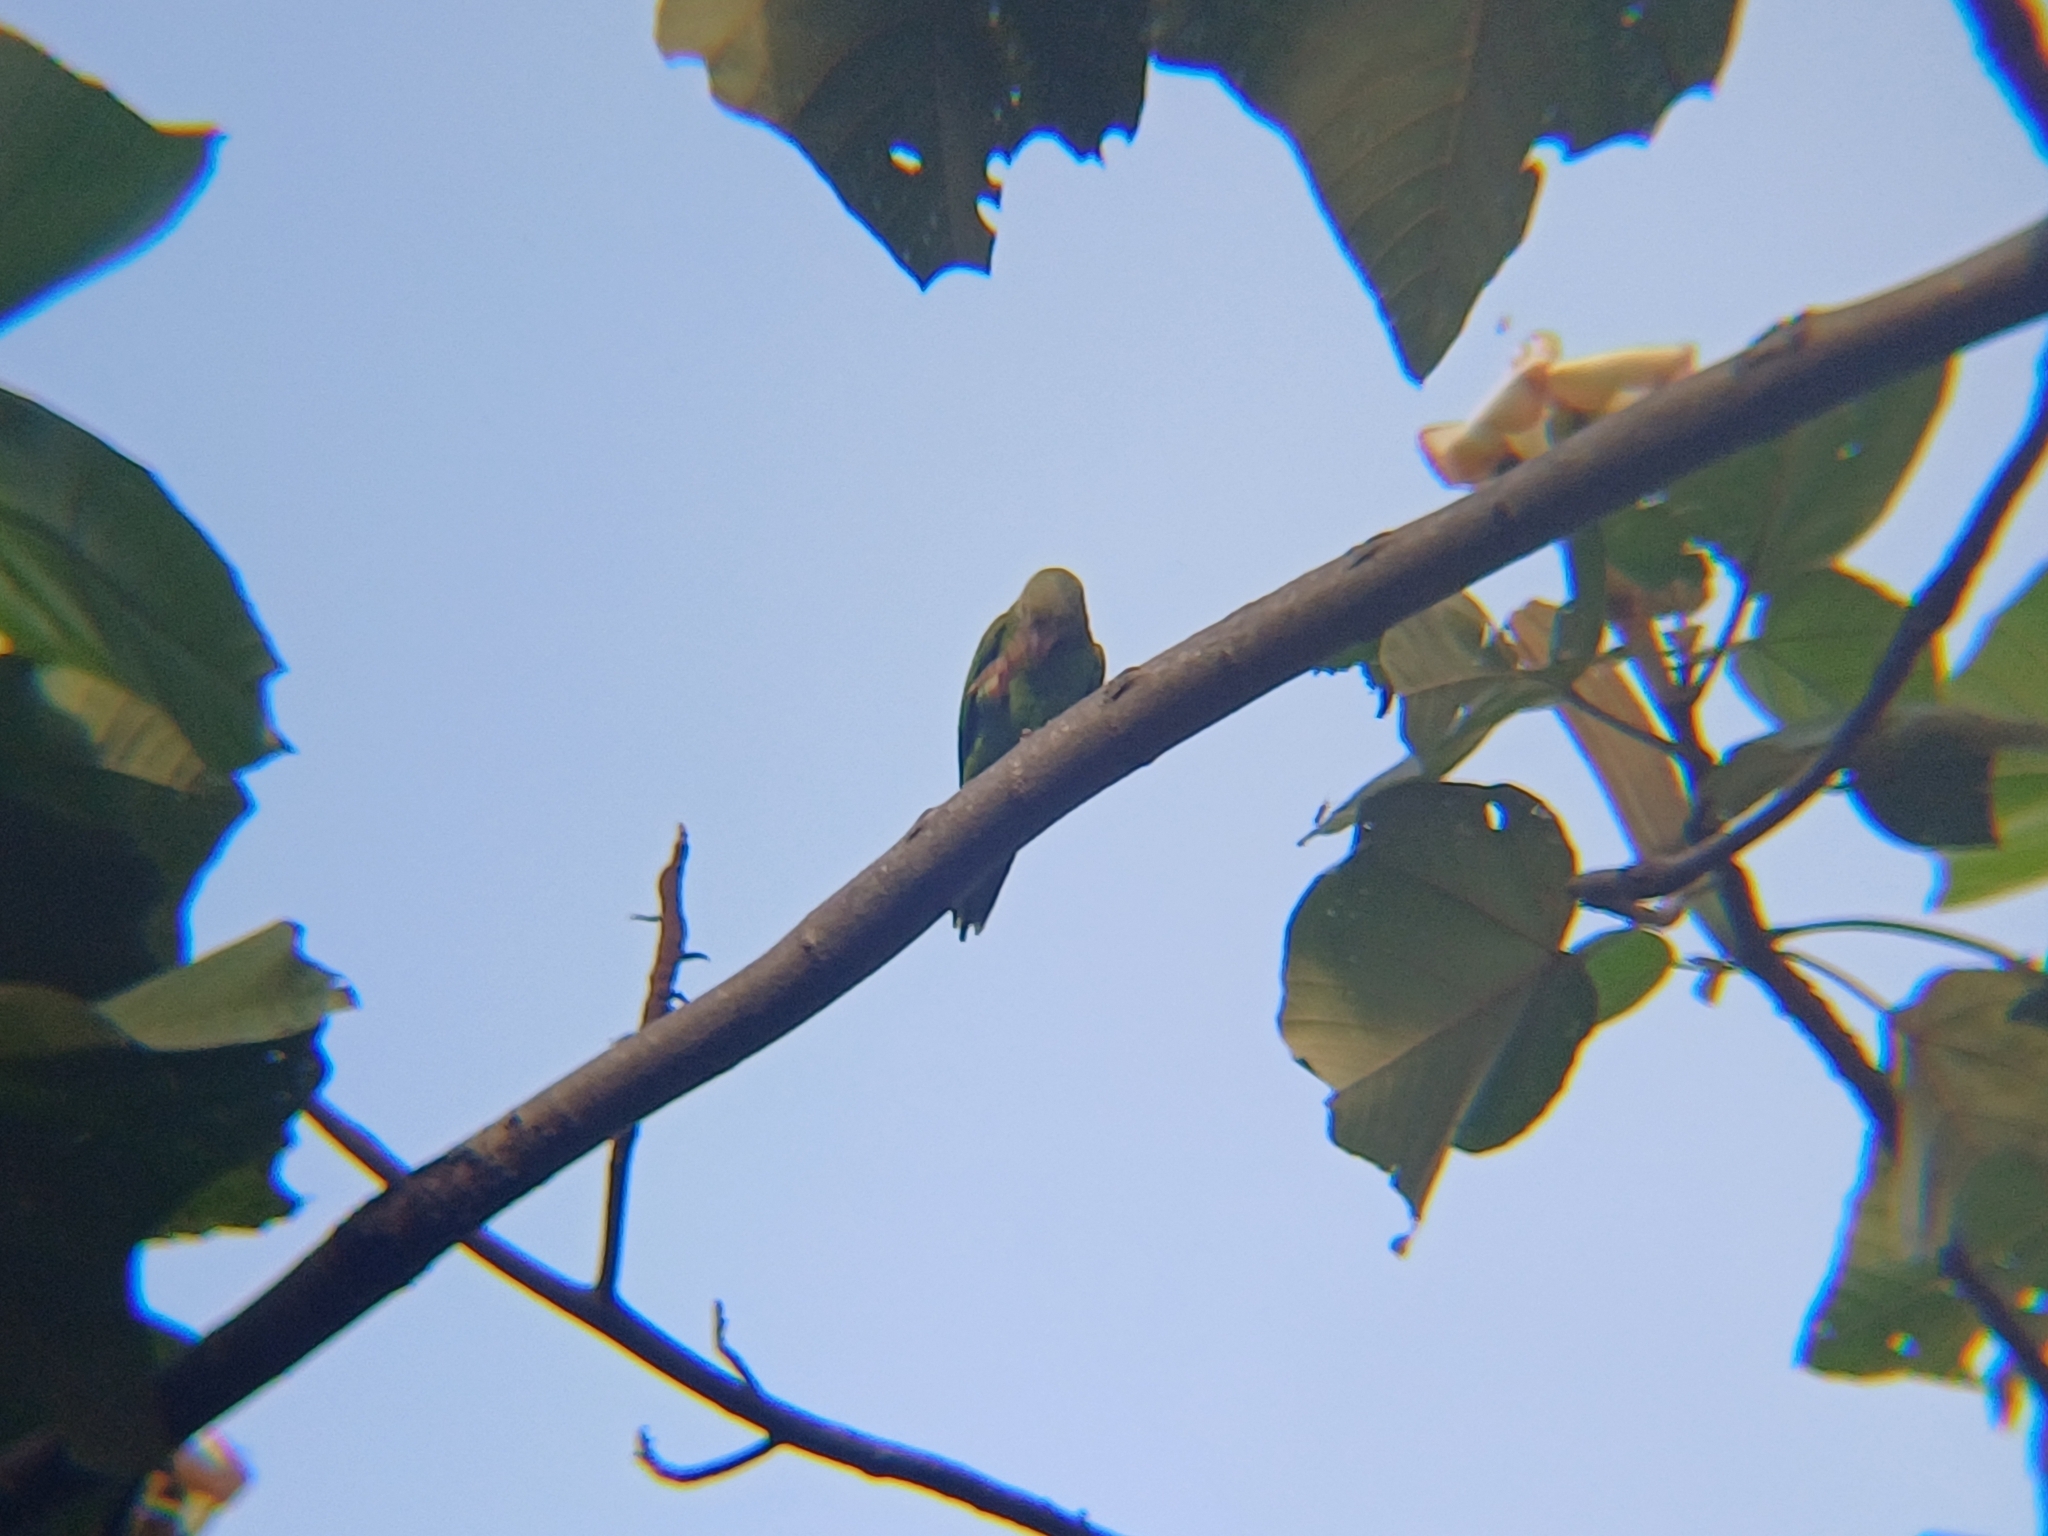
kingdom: Animalia
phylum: Chordata
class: Aves
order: Psittaciformes
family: Psittacidae
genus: Brotogeris
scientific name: Brotogeris cyanoptera
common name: Cobalt-winged parakeet
